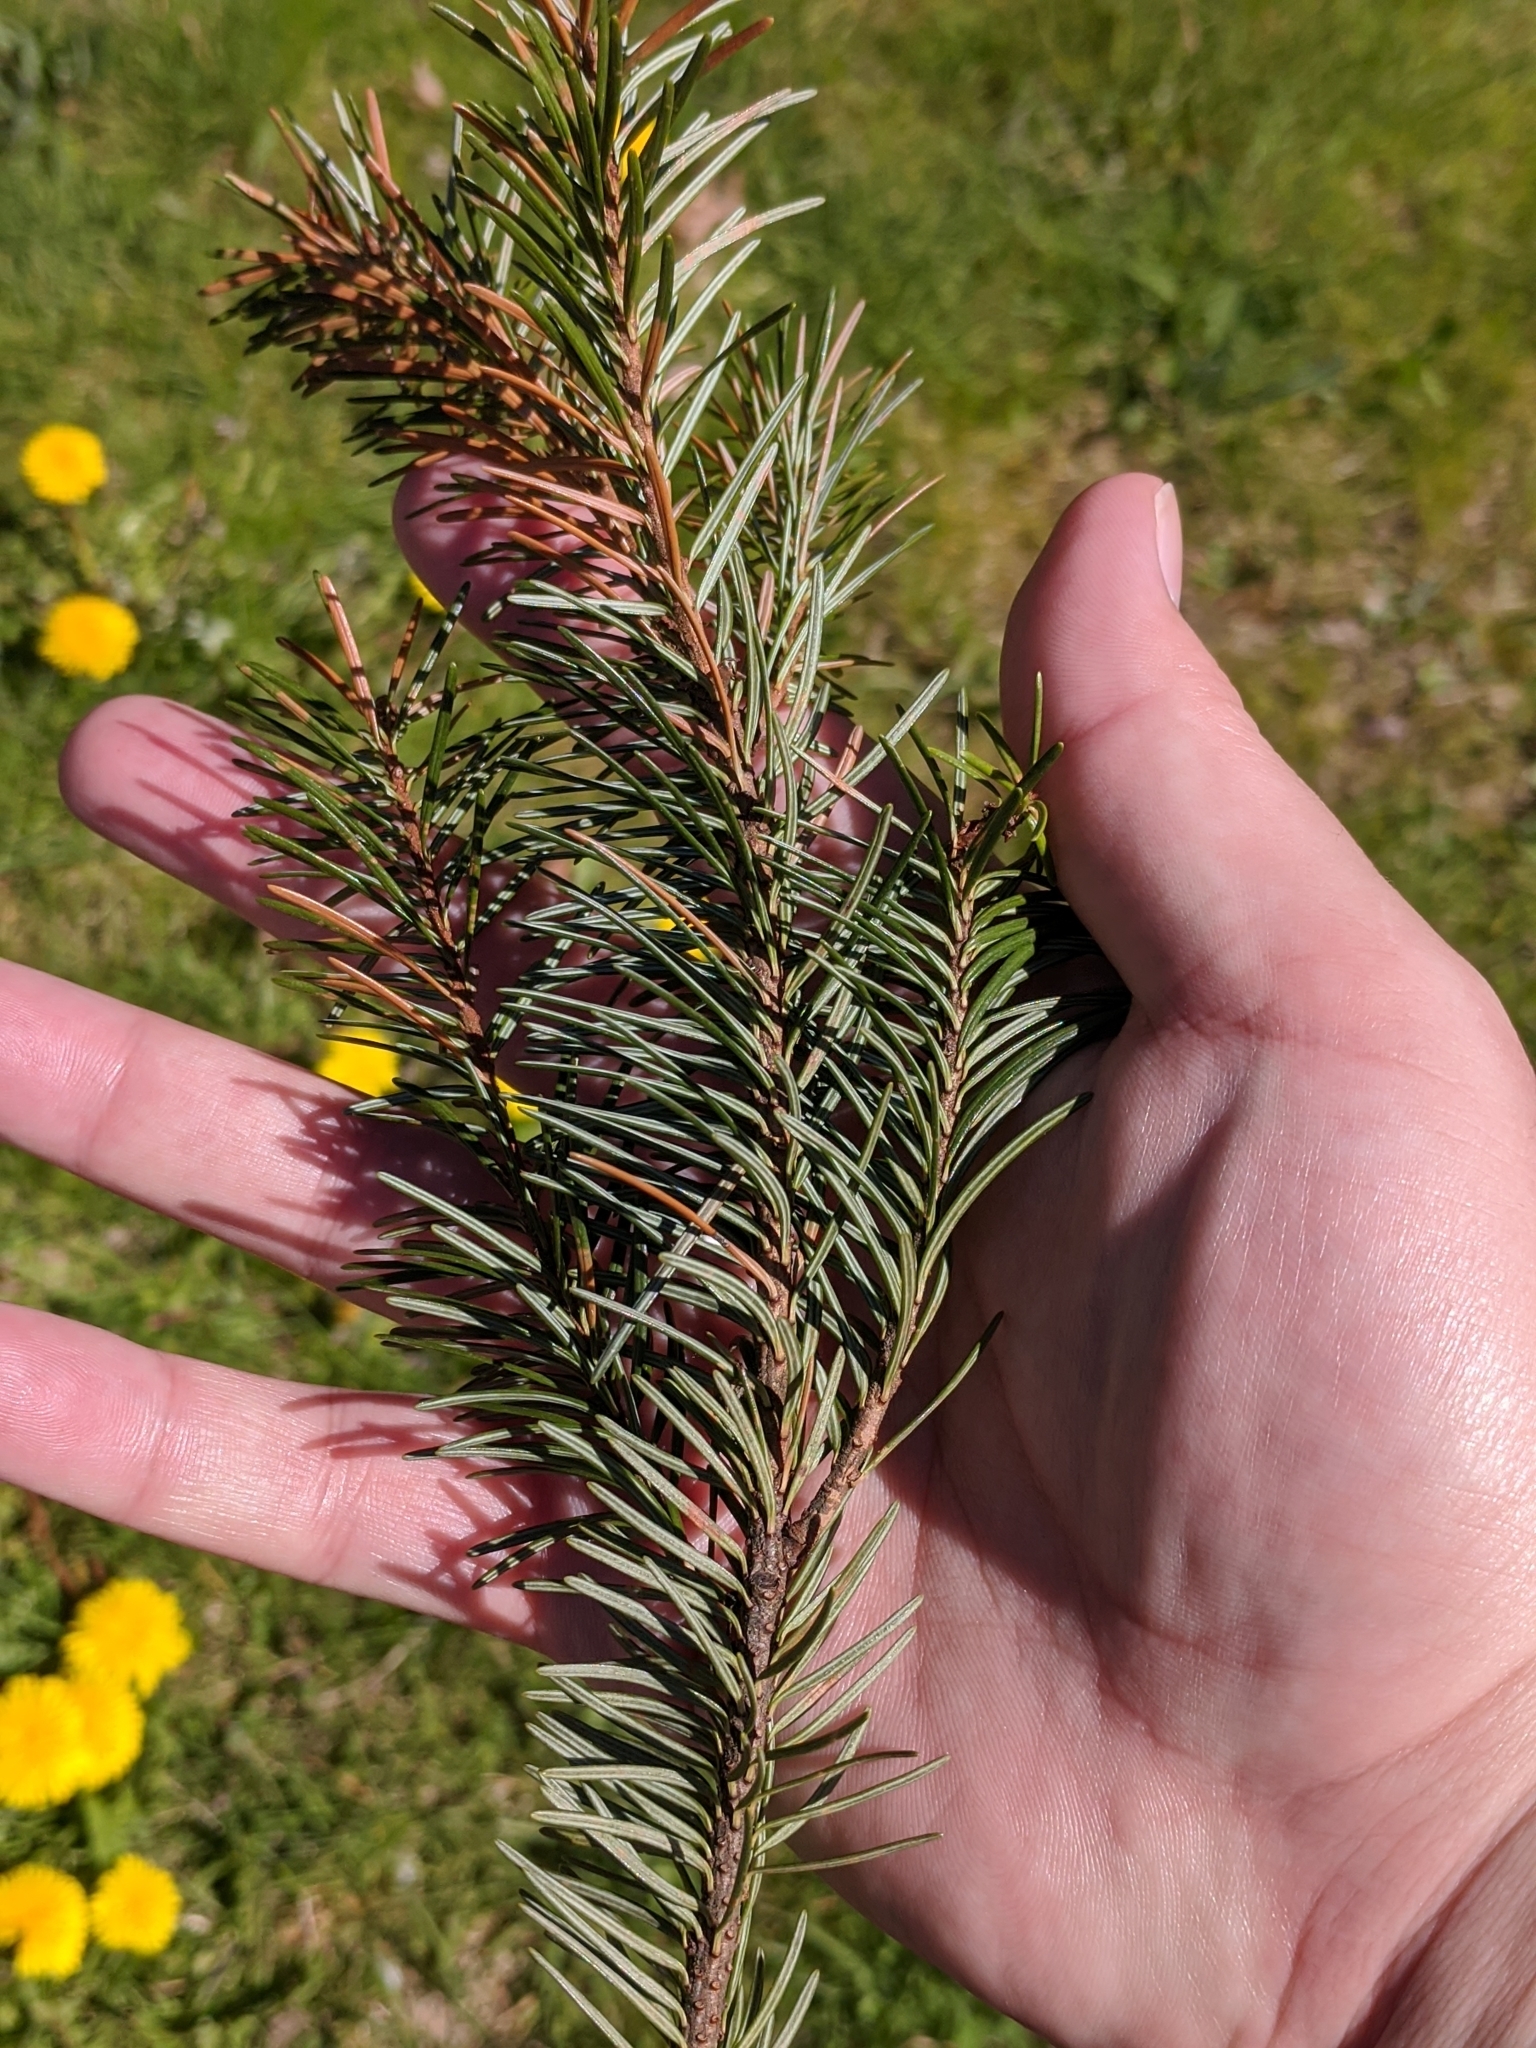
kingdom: Plantae
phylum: Tracheophyta
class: Pinopsida
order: Pinales
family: Pinaceae
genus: Pseudotsuga
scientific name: Pseudotsuga menziesii
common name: Douglas fir
